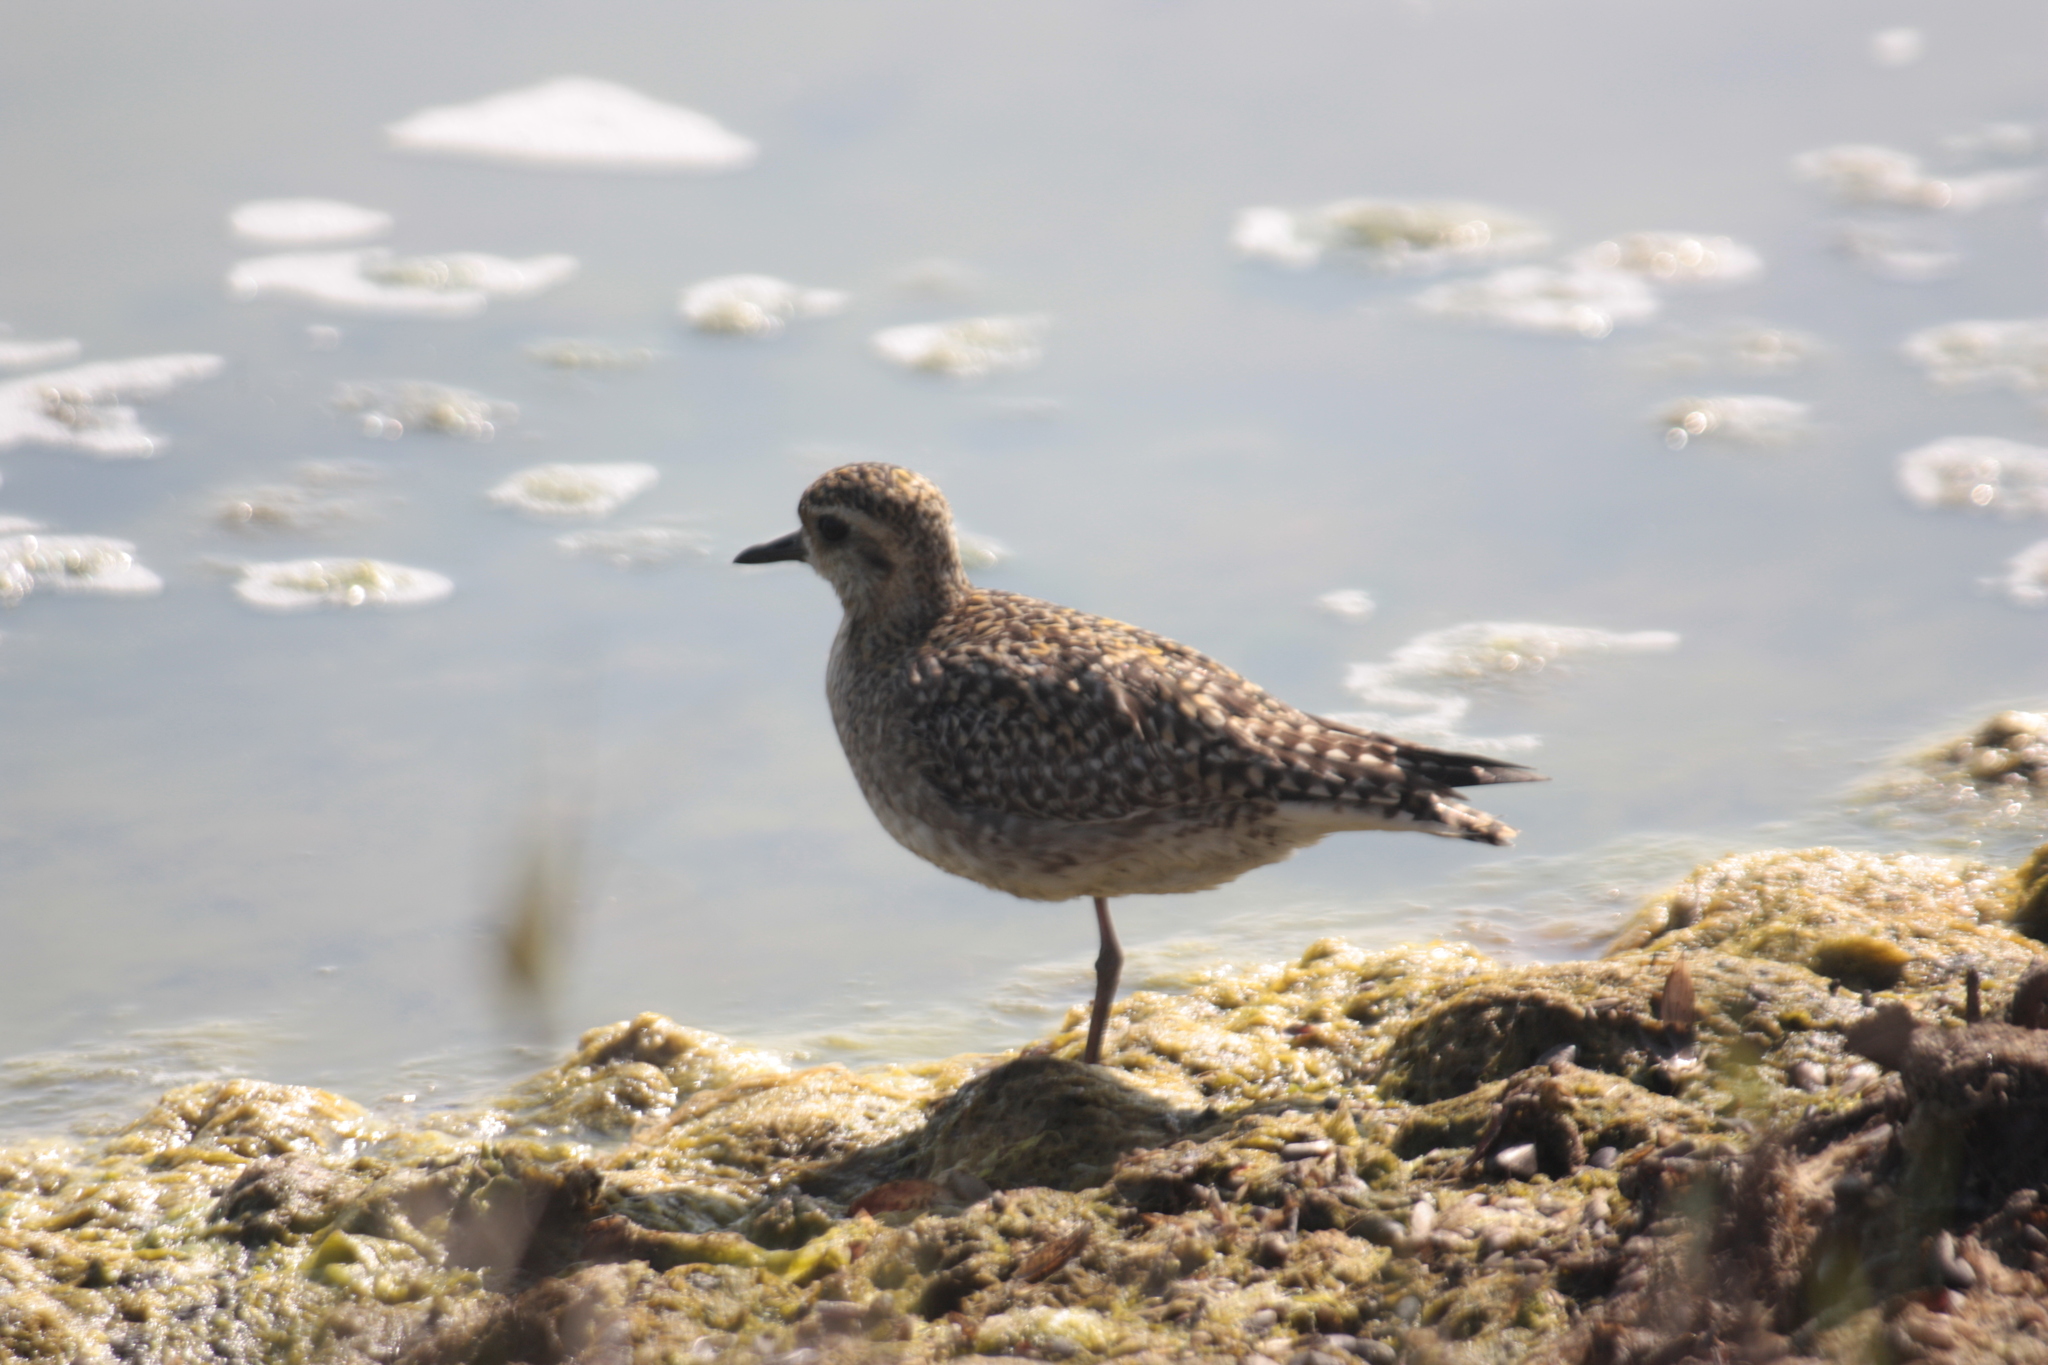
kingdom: Animalia
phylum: Chordata
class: Aves
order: Charadriiformes
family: Charadriidae
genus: Pluvialis
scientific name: Pluvialis fulva
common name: Pacific golden plover
